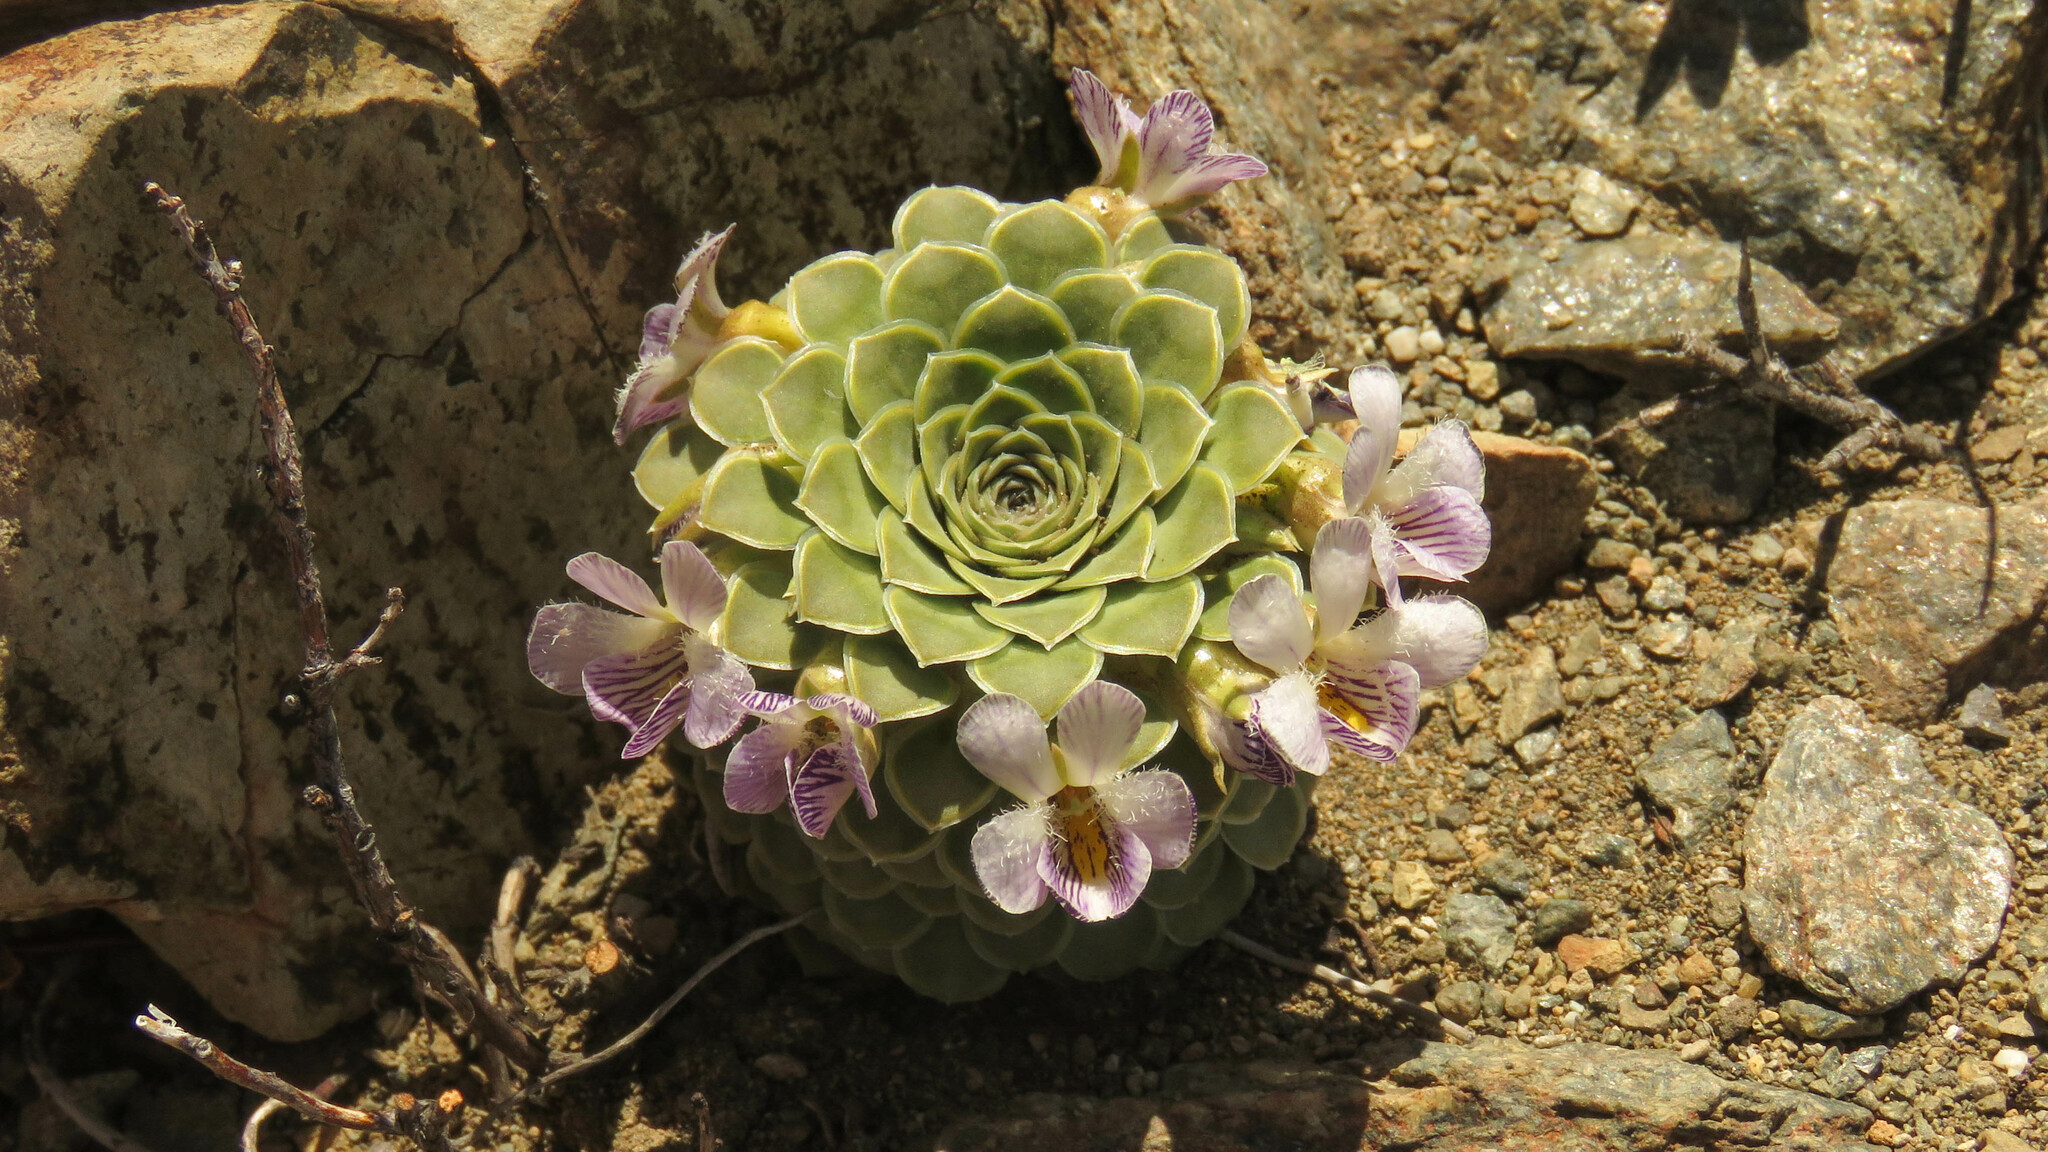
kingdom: Plantae
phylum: Tracheophyta
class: Magnoliopsida
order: Malpighiales
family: Violaceae
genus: Viola
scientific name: Viola petraea
